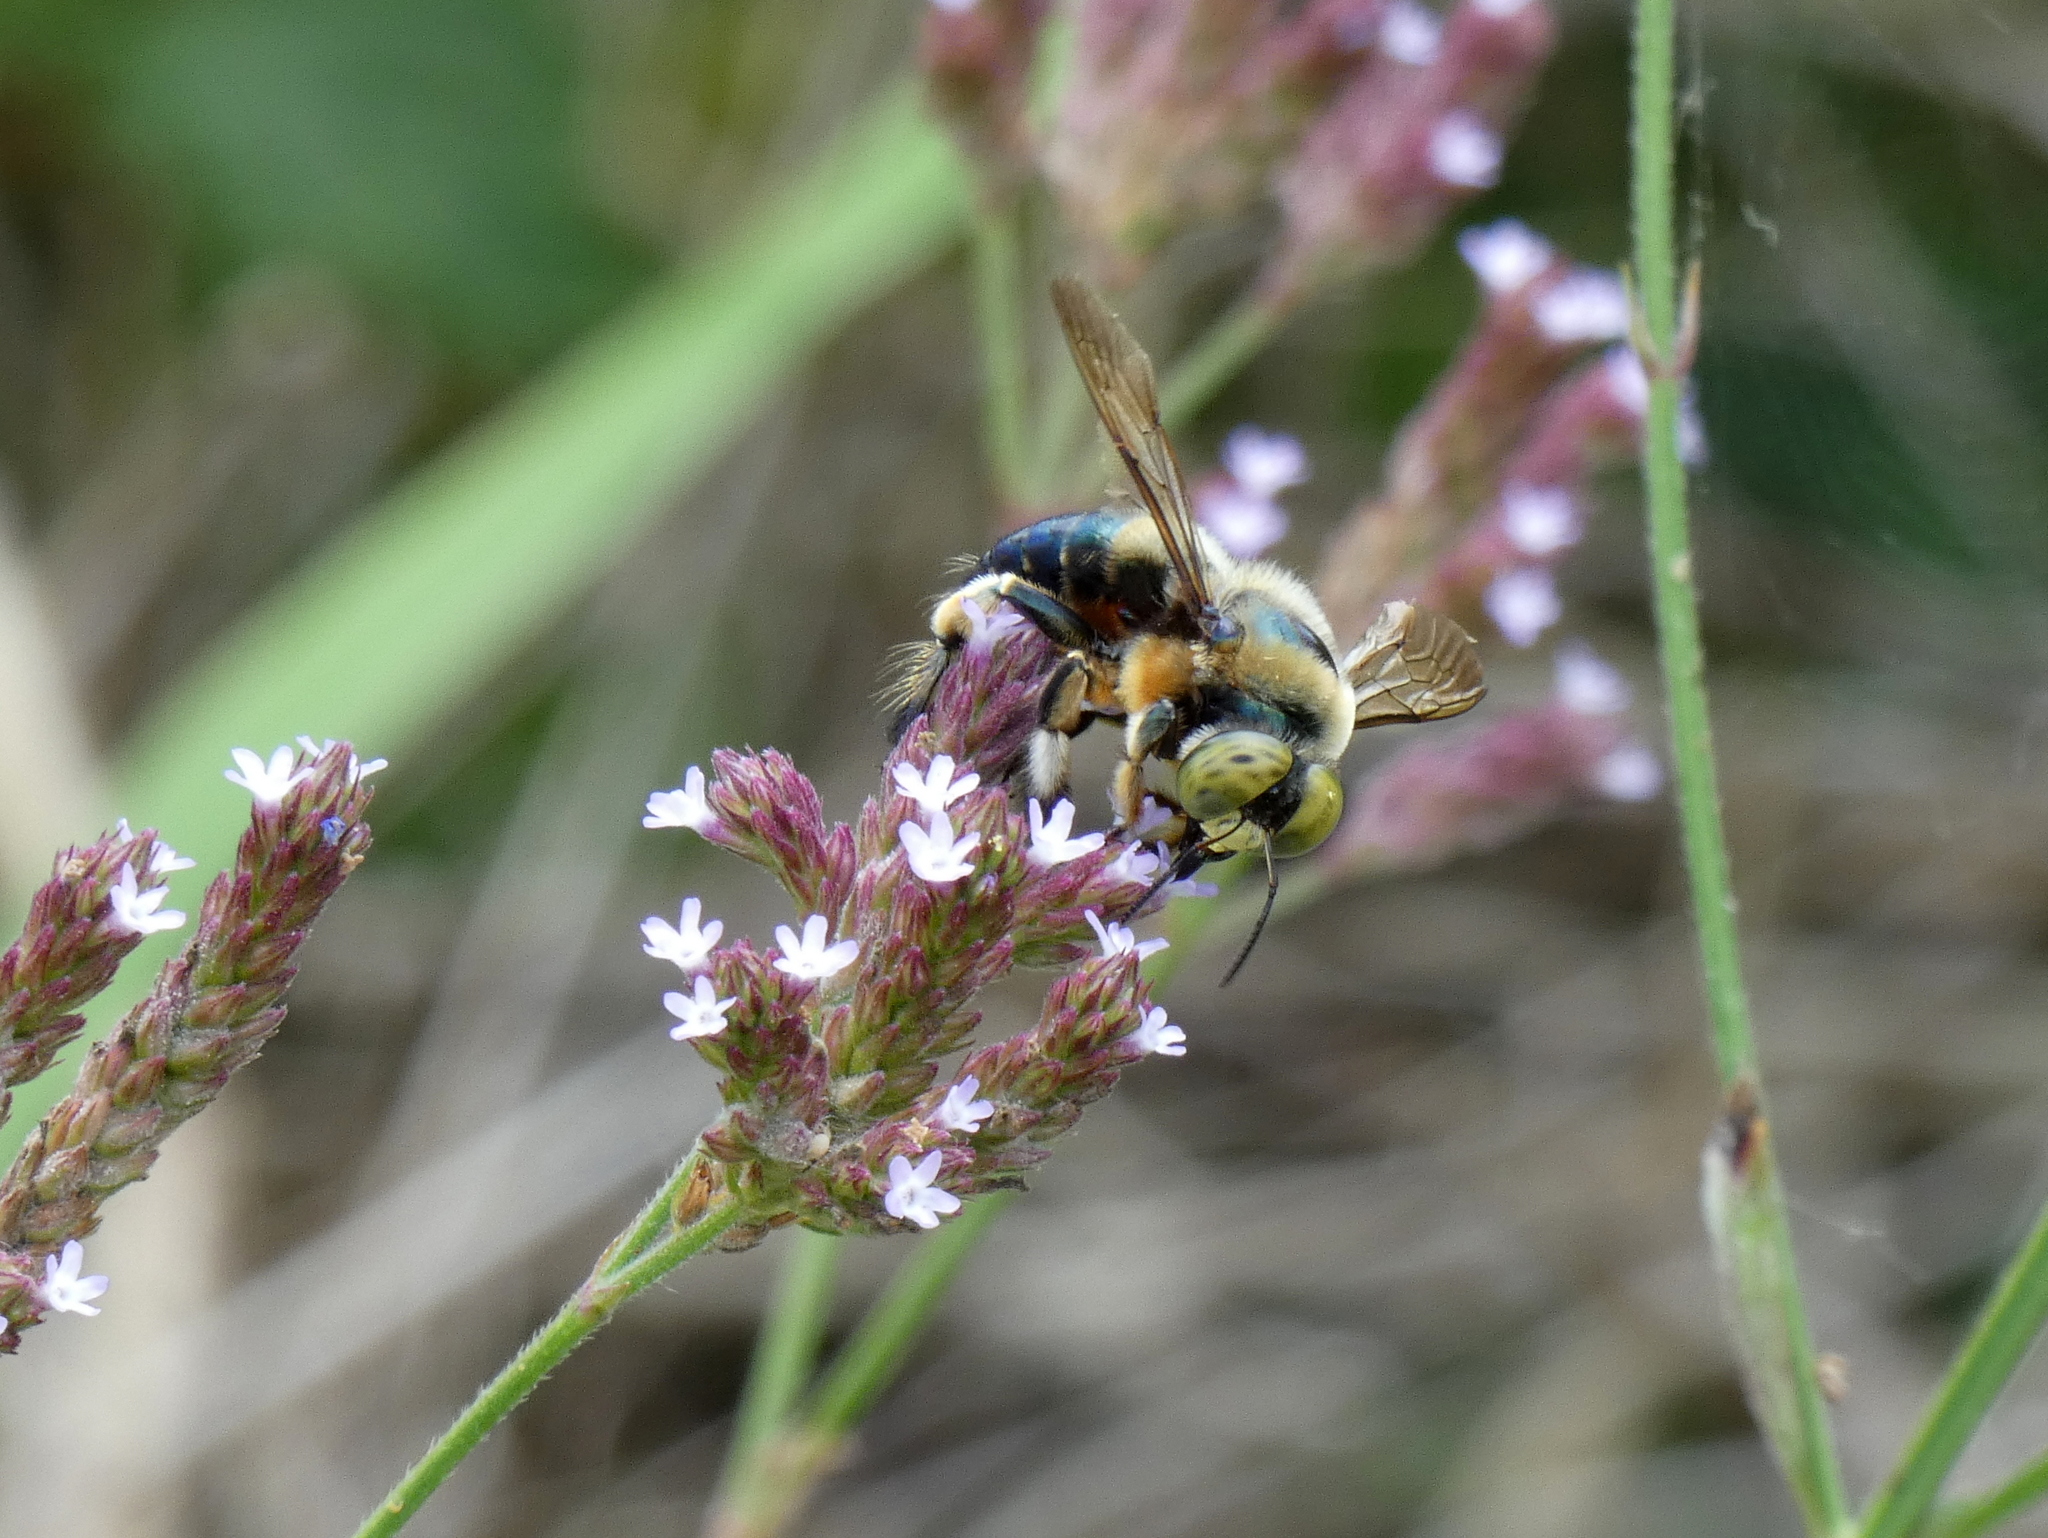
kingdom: Animalia
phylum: Arthropoda
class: Insecta
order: Hymenoptera
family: Apidae
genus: Xylocopa
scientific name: Xylocopa micans
